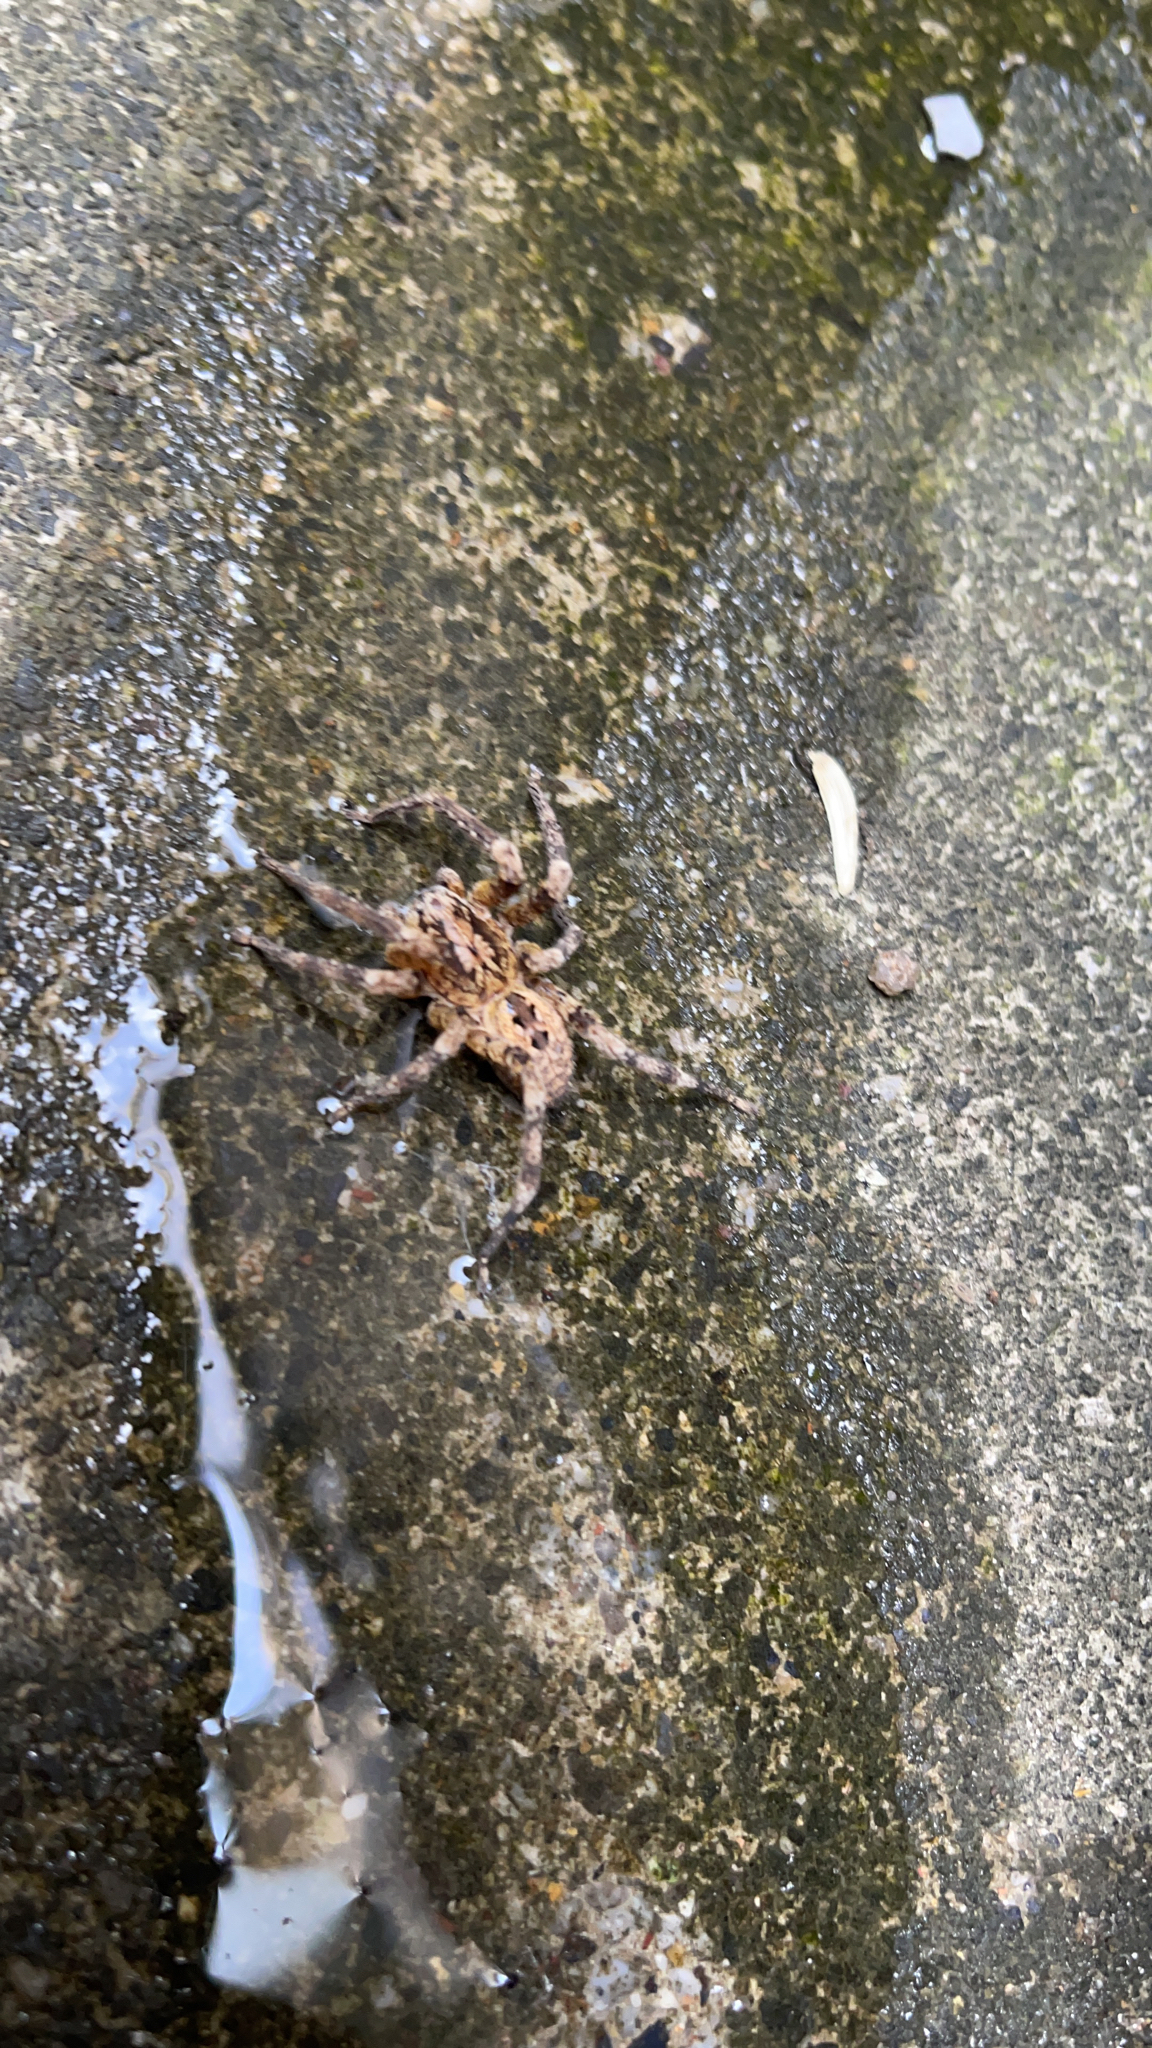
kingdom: Animalia
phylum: Arthropoda
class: Arachnida
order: Araneae
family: Zoropsidae
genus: Zoropsis
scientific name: Zoropsis spinimana
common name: Zoropsid spider
